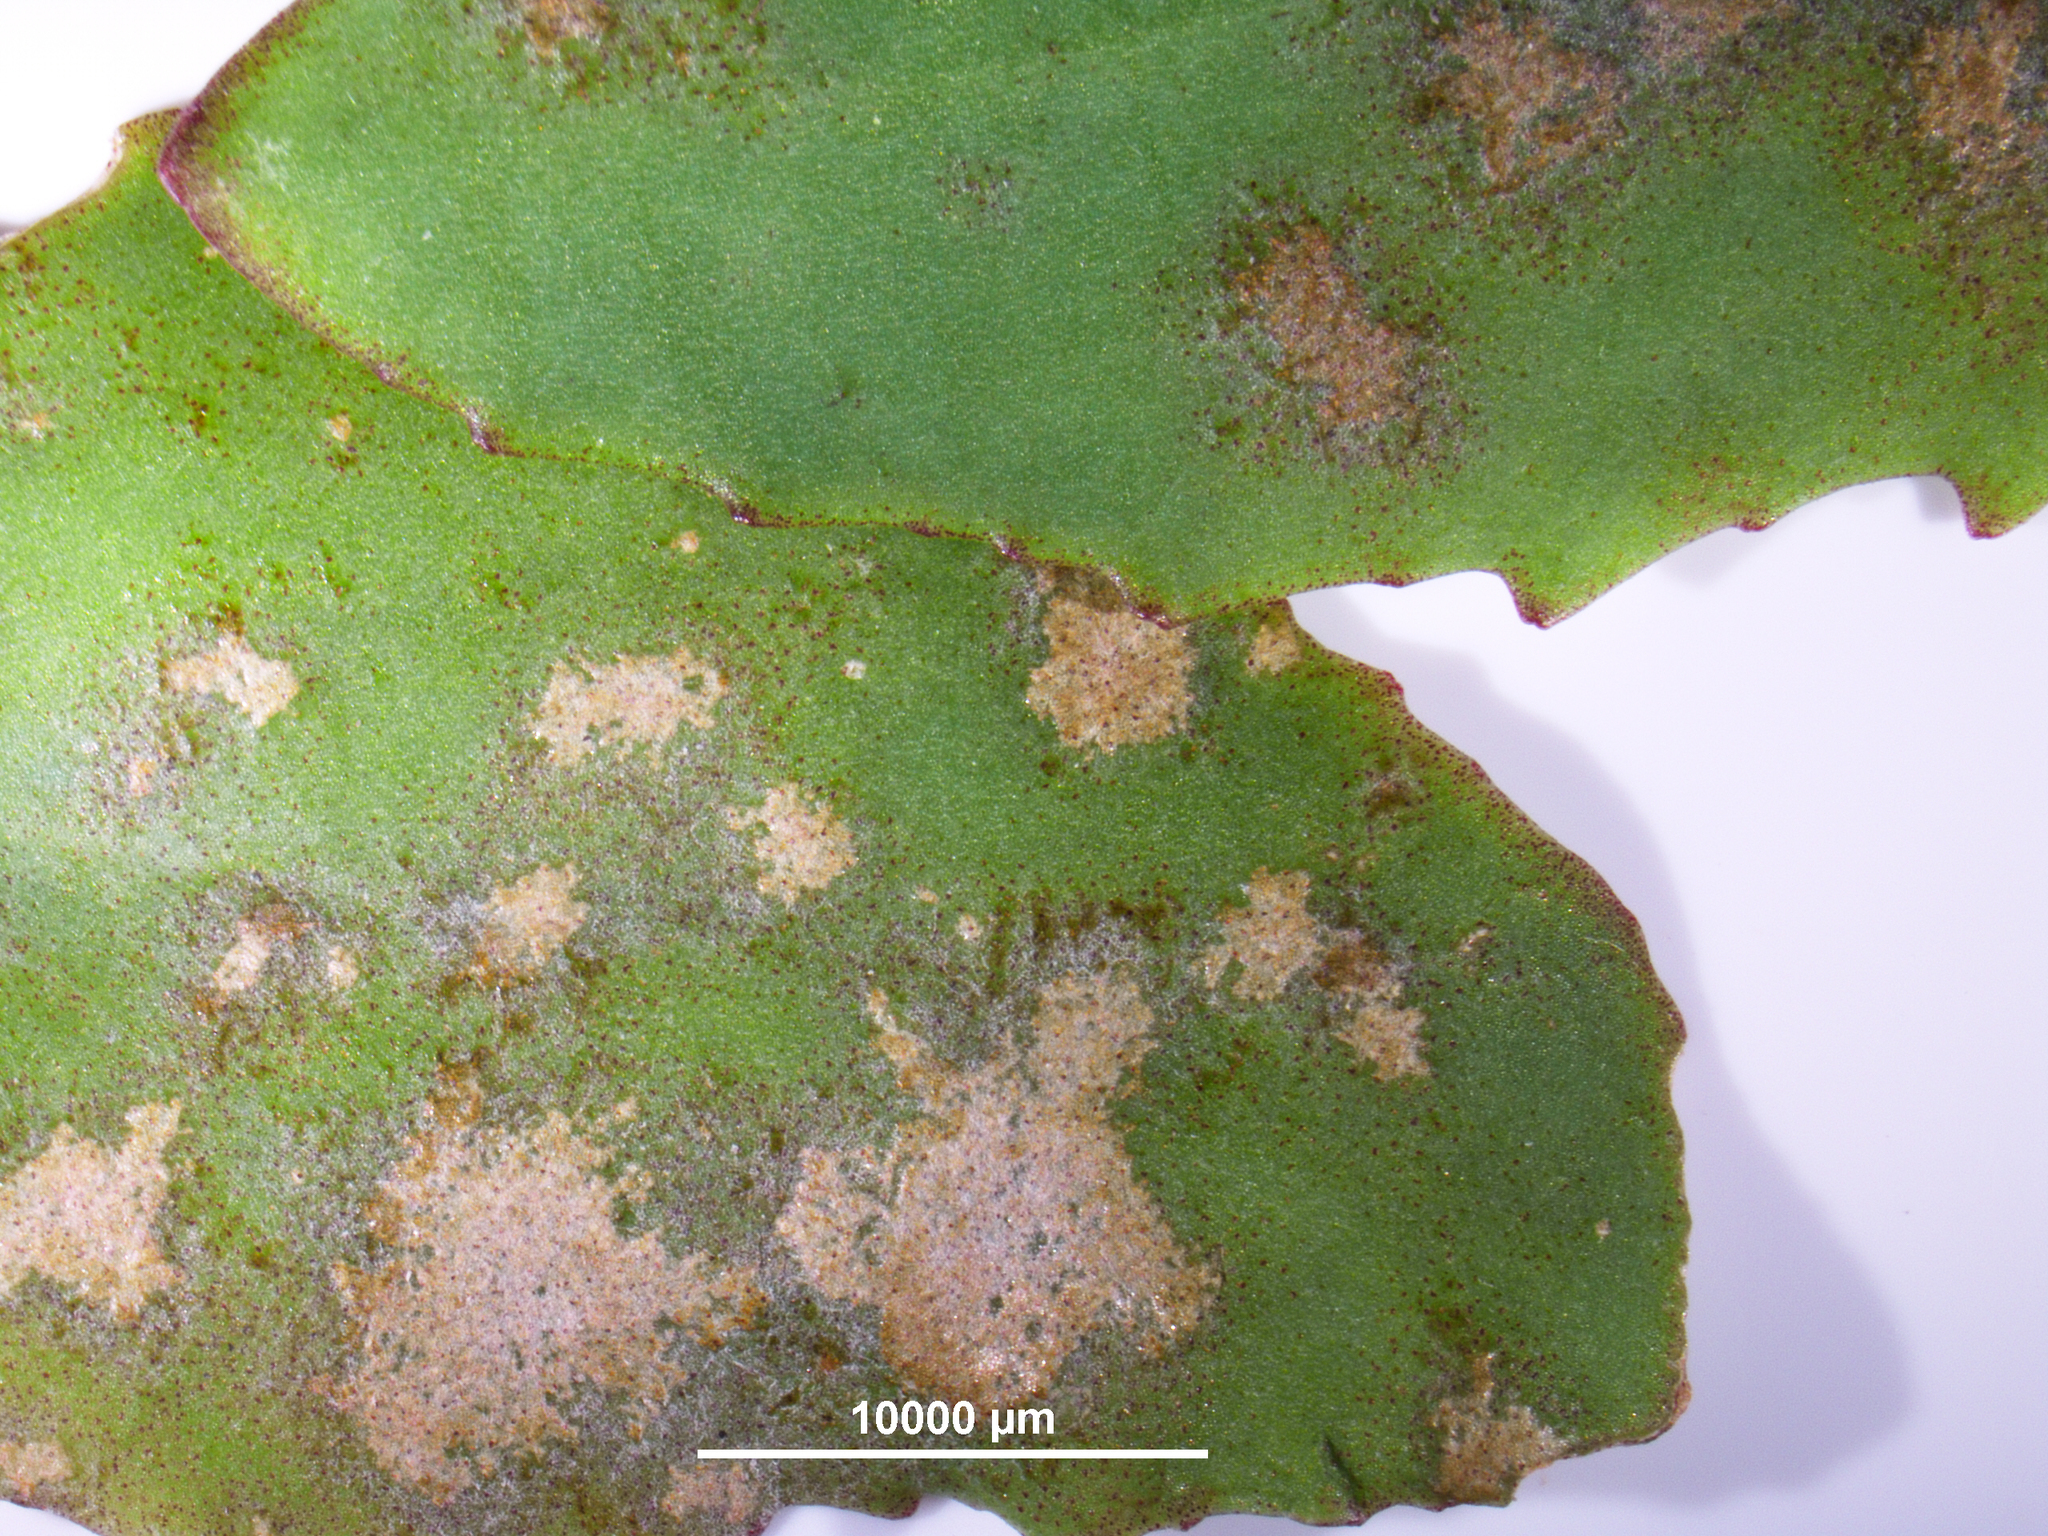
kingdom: Fungi
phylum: Ascomycota
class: Leotiomycetes
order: Helotiales
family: Erysiphaceae
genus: Erysiphe
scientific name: Erysiphe sedi
